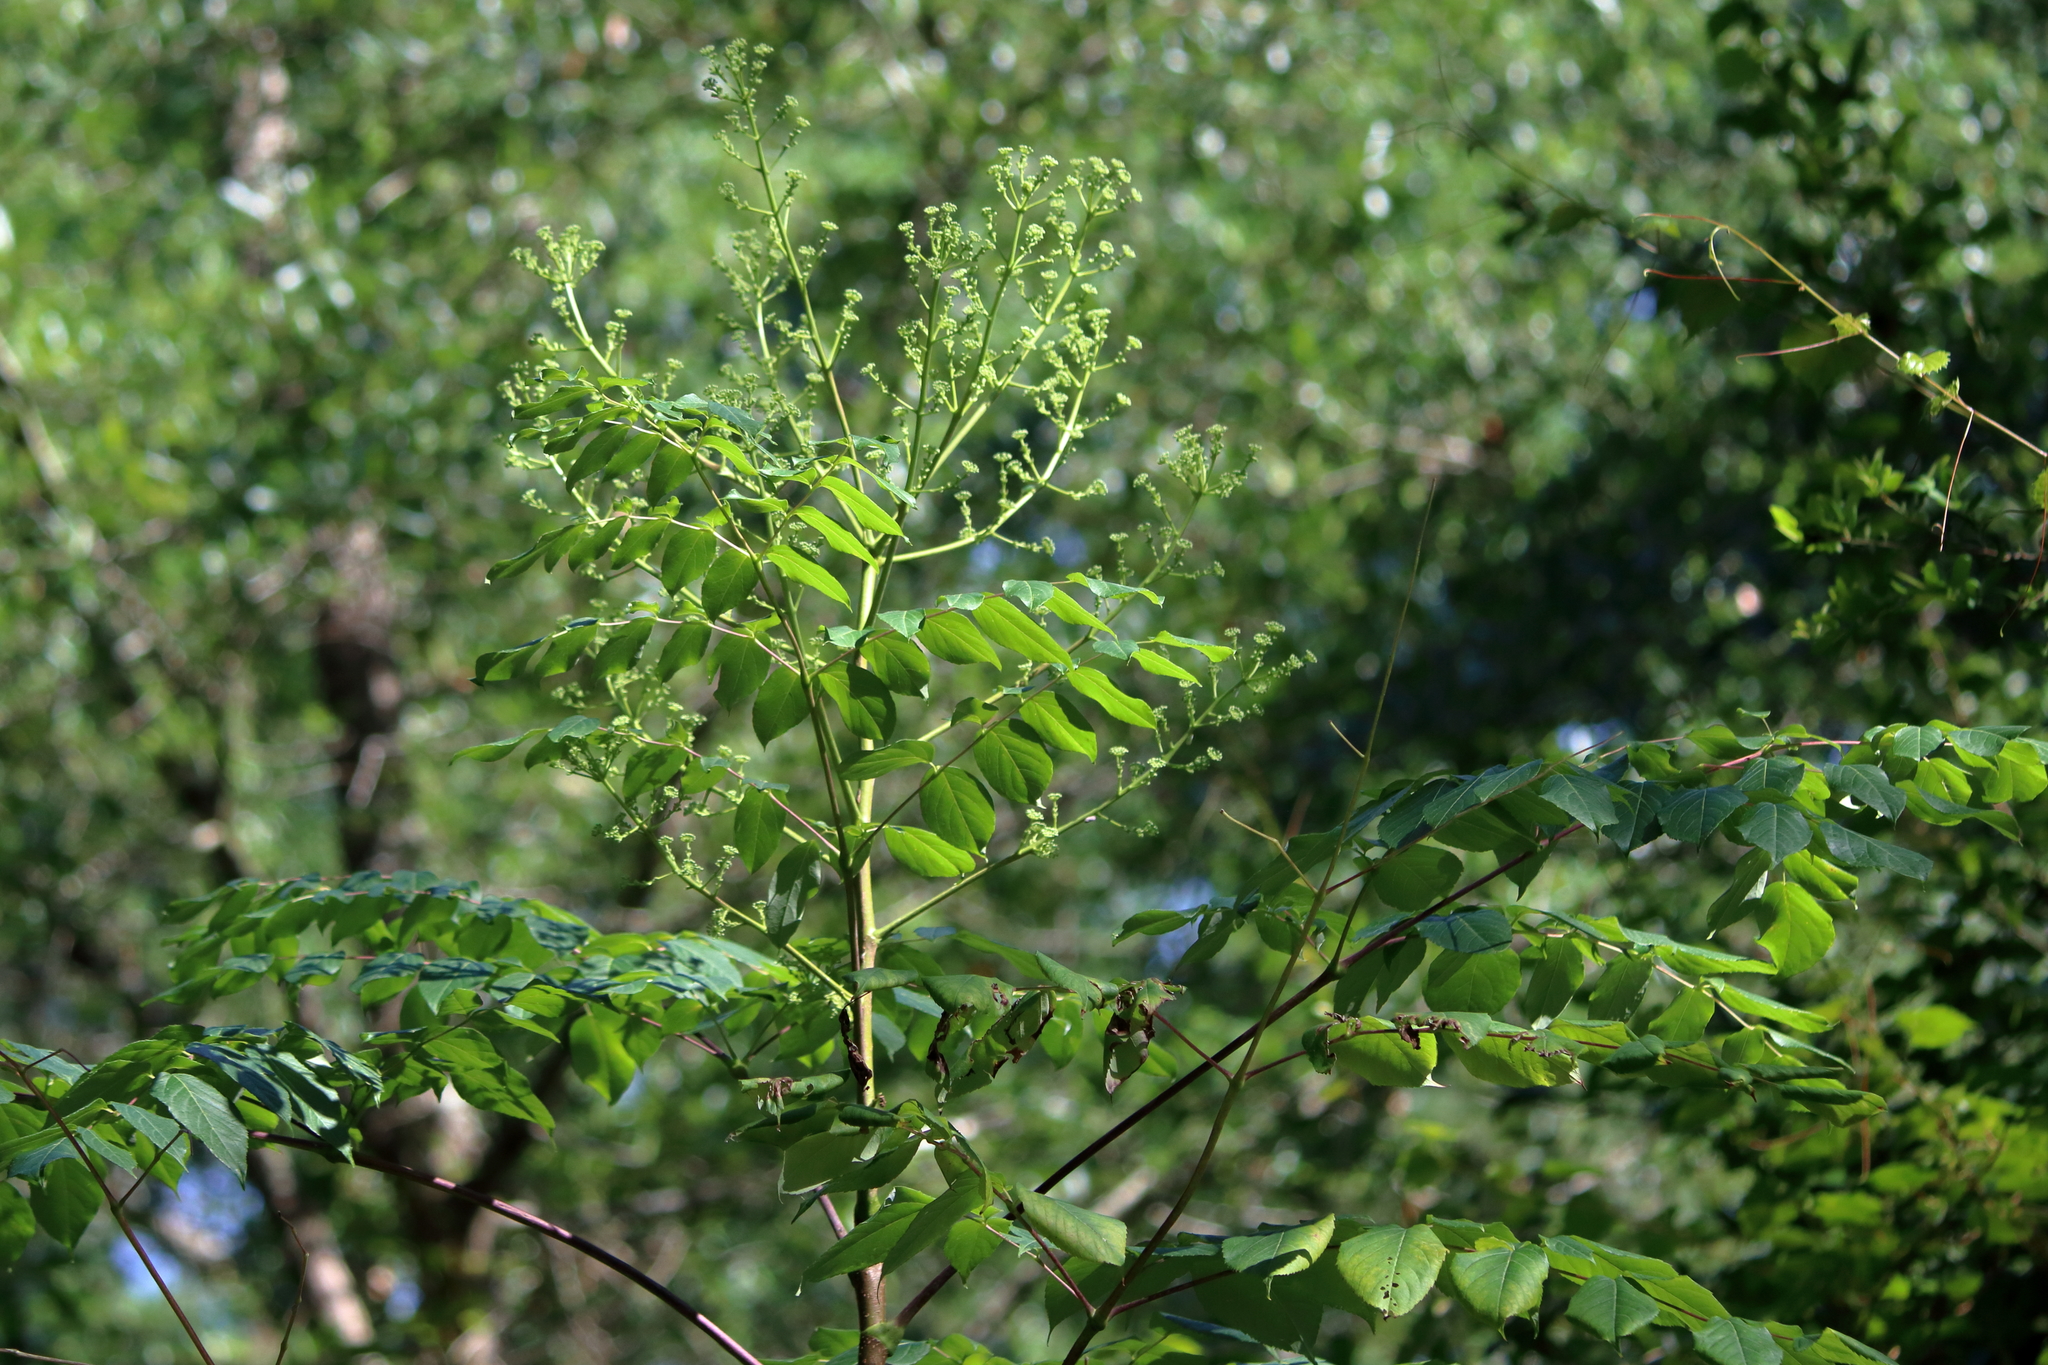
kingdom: Plantae
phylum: Tracheophyta
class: Magnoliopsida
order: Apiales
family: Araliaceae
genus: Aralia
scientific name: Aralia spinosa
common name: Hercules'-club
